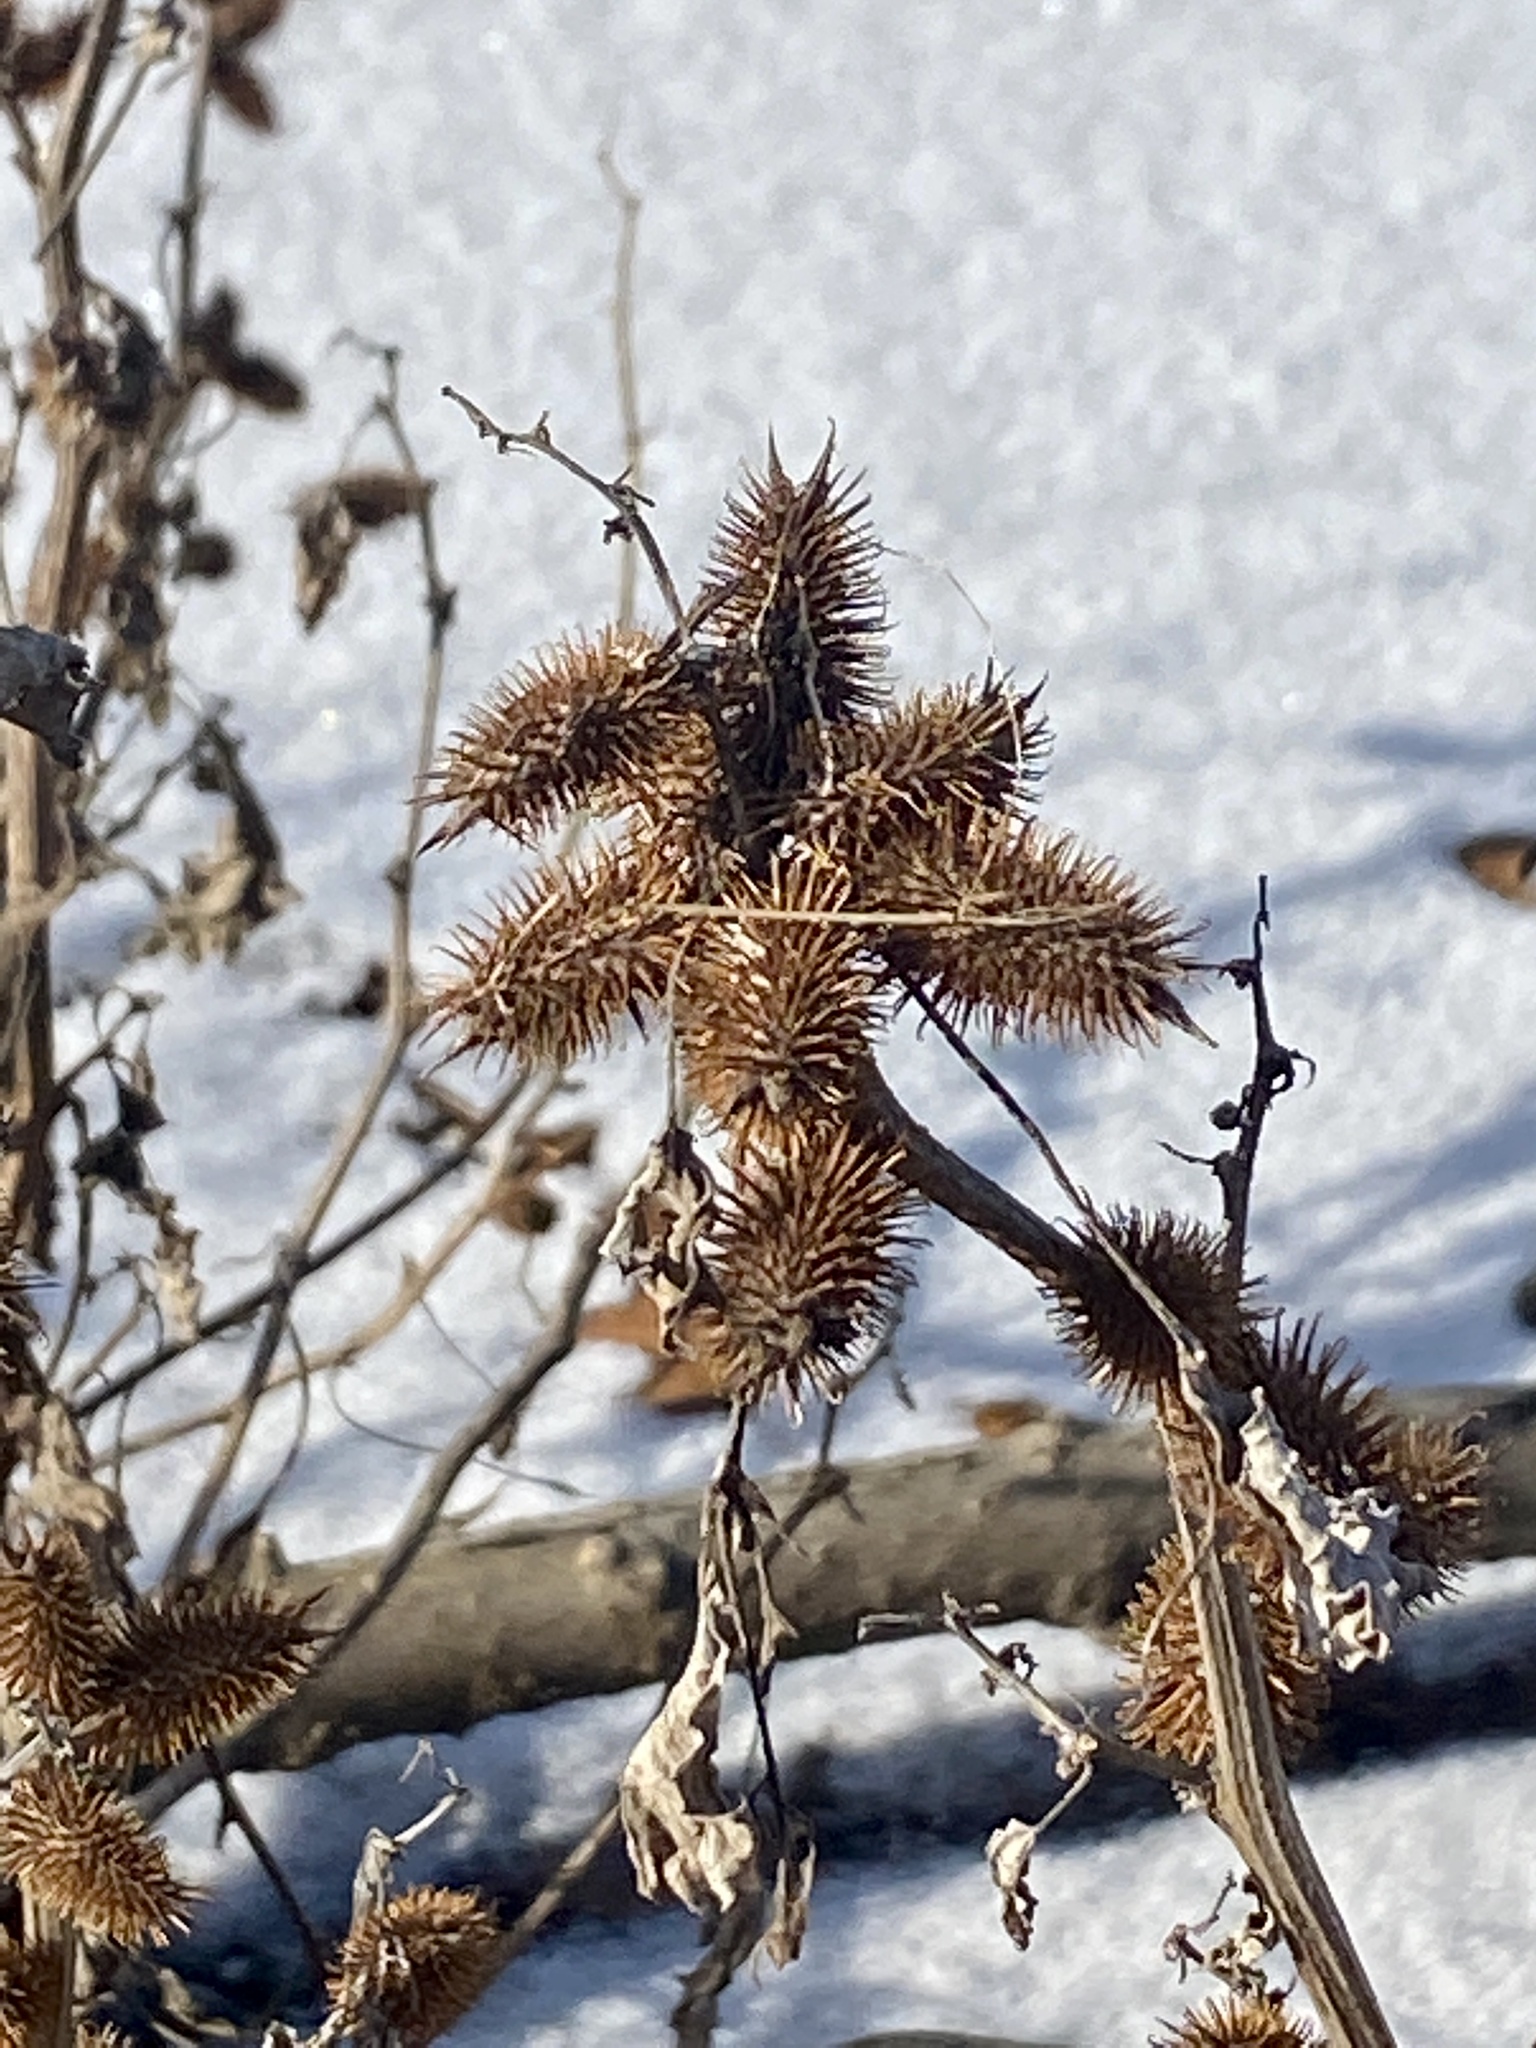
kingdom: Plantae
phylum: Tracheophyta
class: Magnoliopsida
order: Asterales
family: Asteraceae
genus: Xanthium
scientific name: Xanthium strumarium
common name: Rough cocklebur
